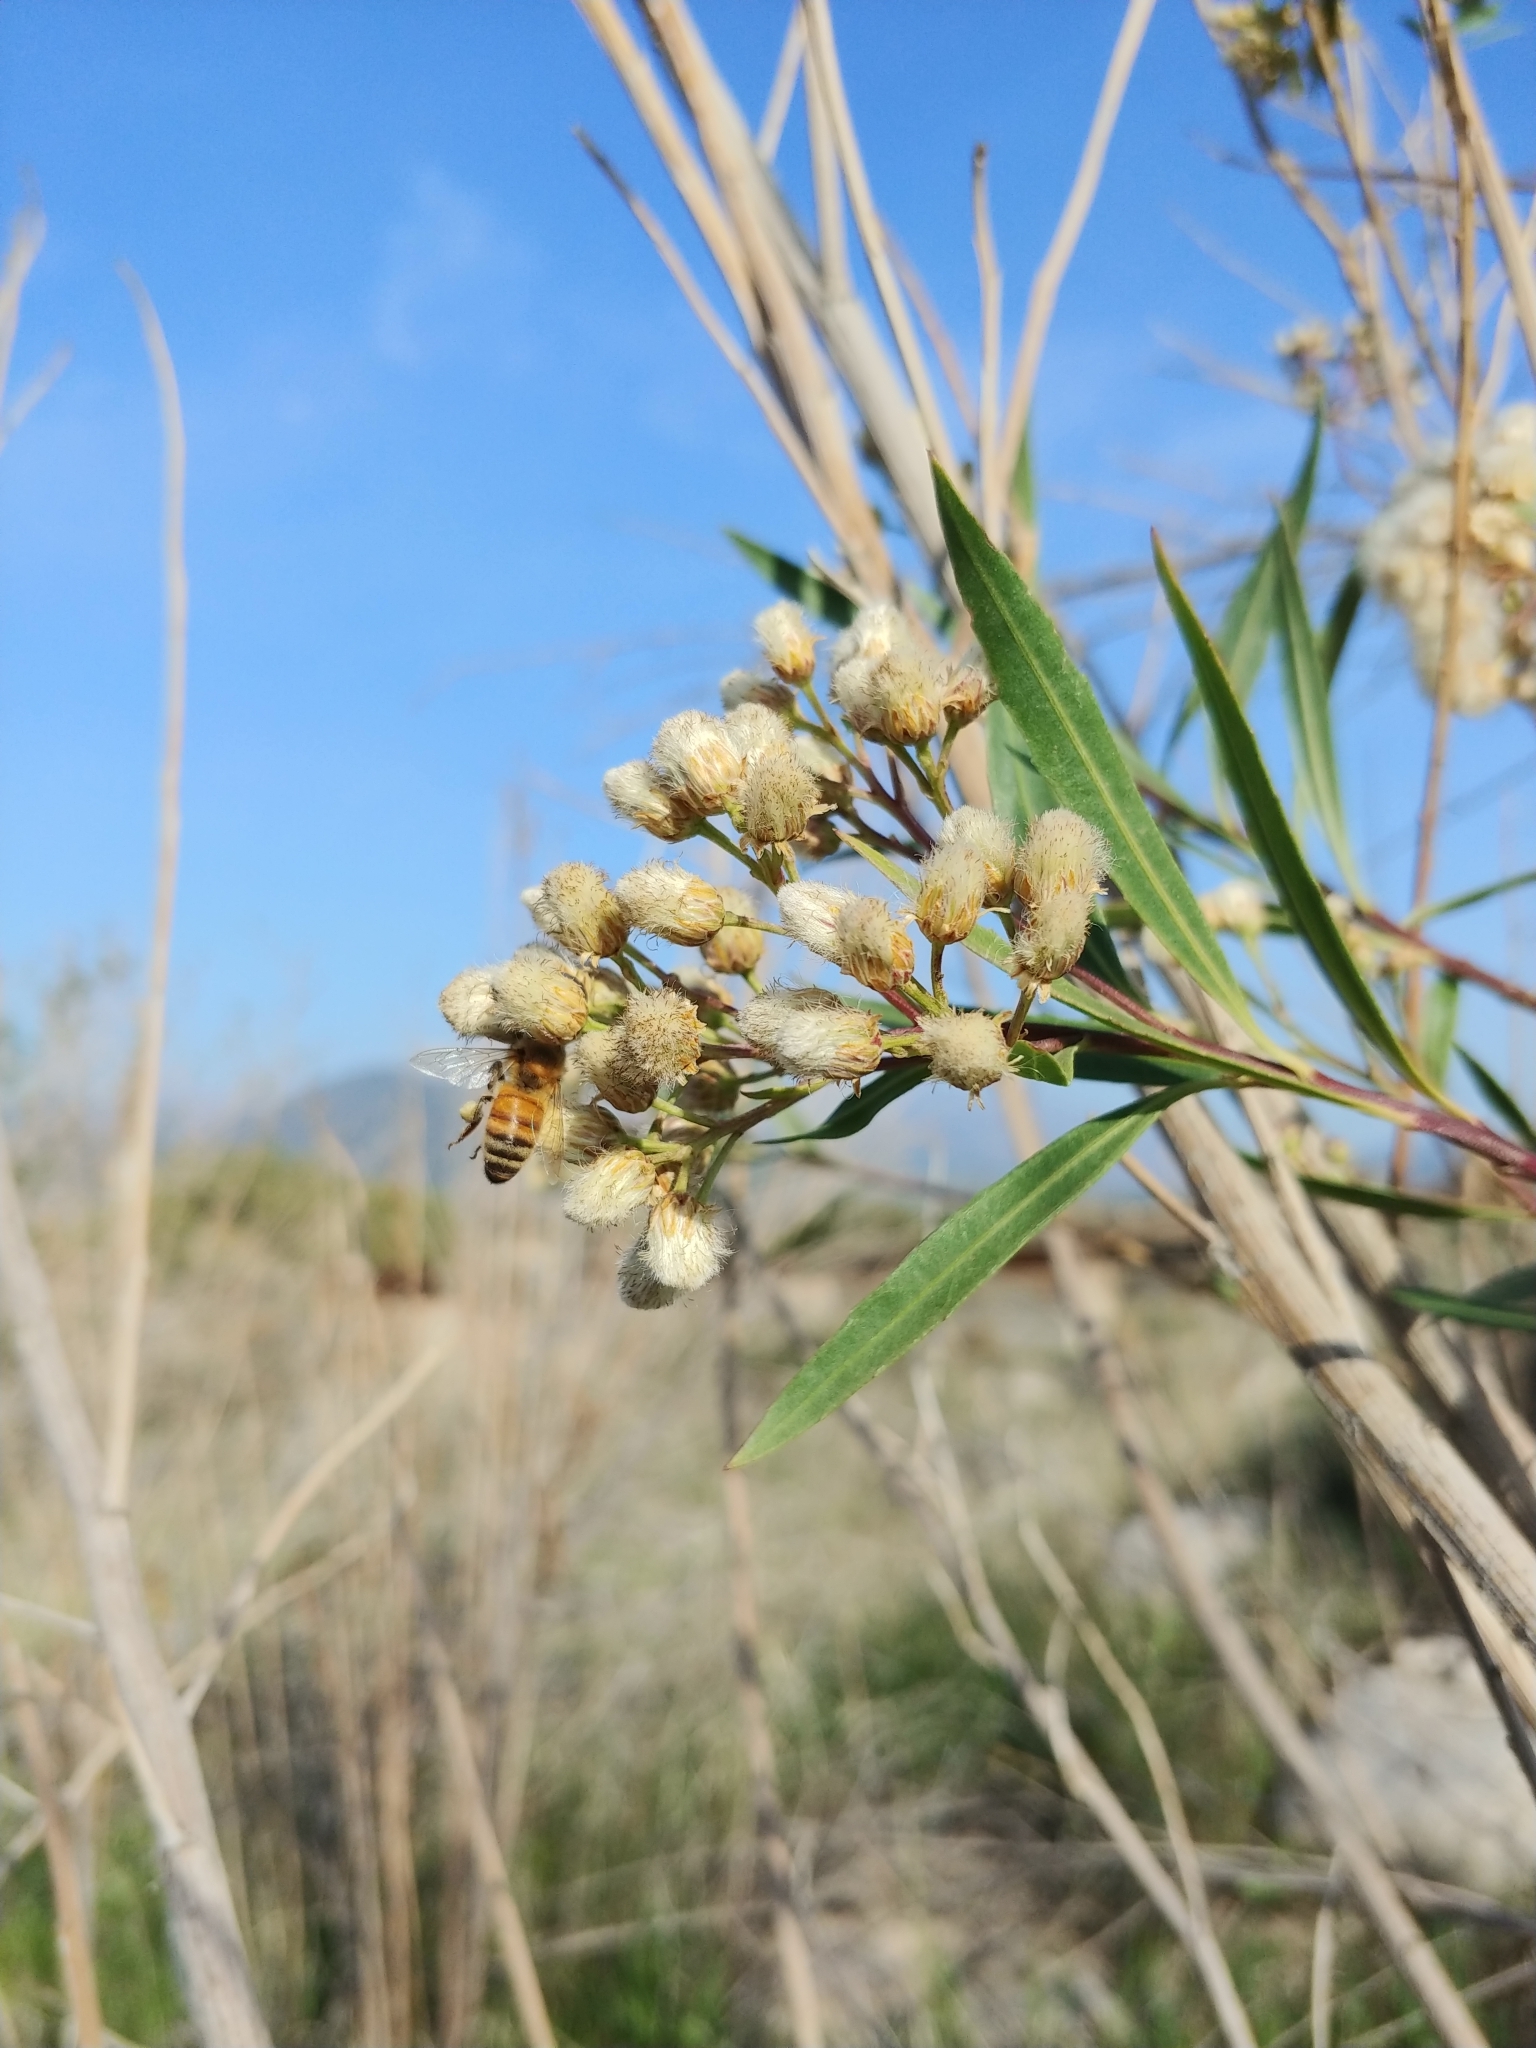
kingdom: Plantae
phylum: Tracheophyta
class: Magnoliopsida
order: Asterales
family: Asteraceae
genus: Baccharis
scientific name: Baccharis salicifolia
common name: Sticky baccharis
